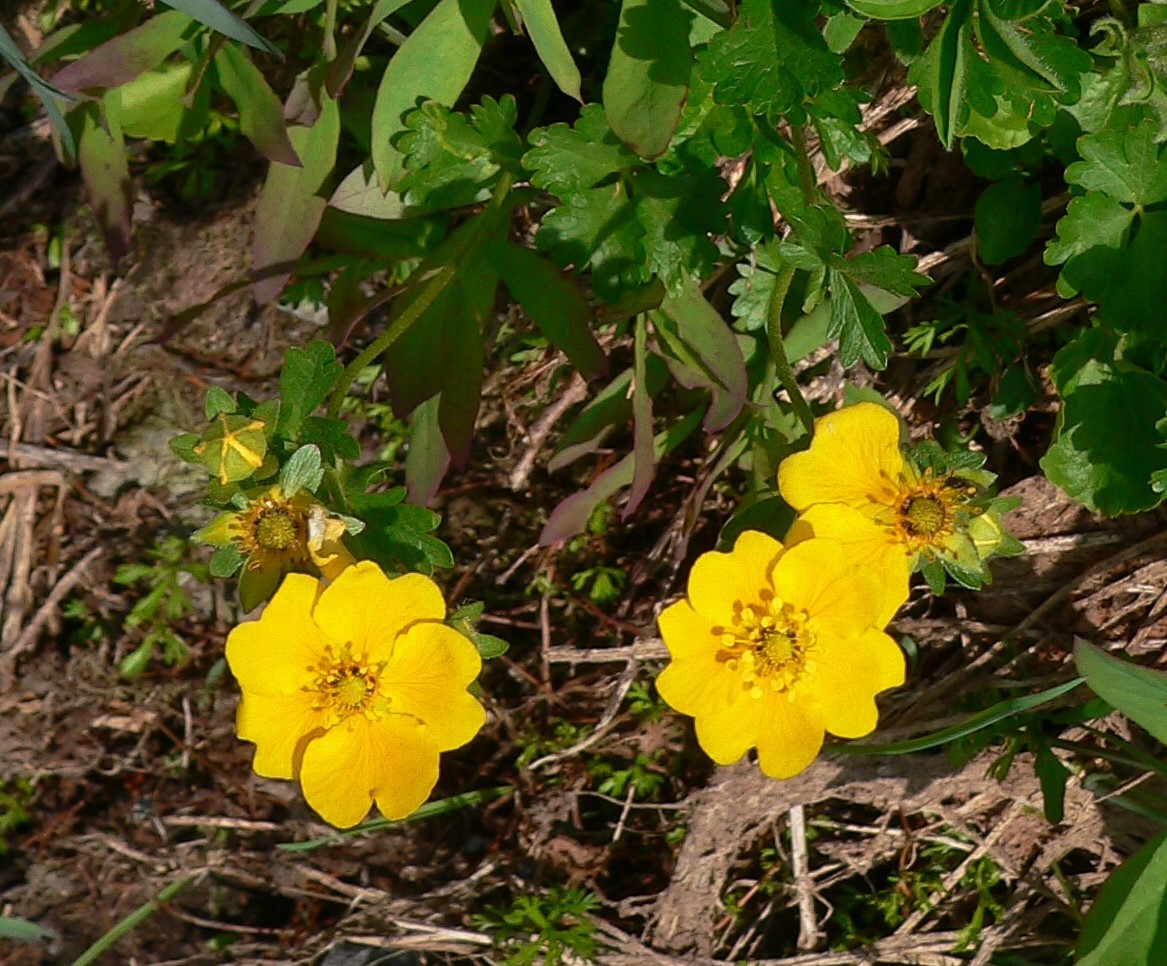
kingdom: Plantae
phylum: Tracheophyta
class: Magnoliopsida
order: Rosales
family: Rosaceae
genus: Potentilla
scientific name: Potentilla flabellifolia
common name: Mount rainier cinquefoil
